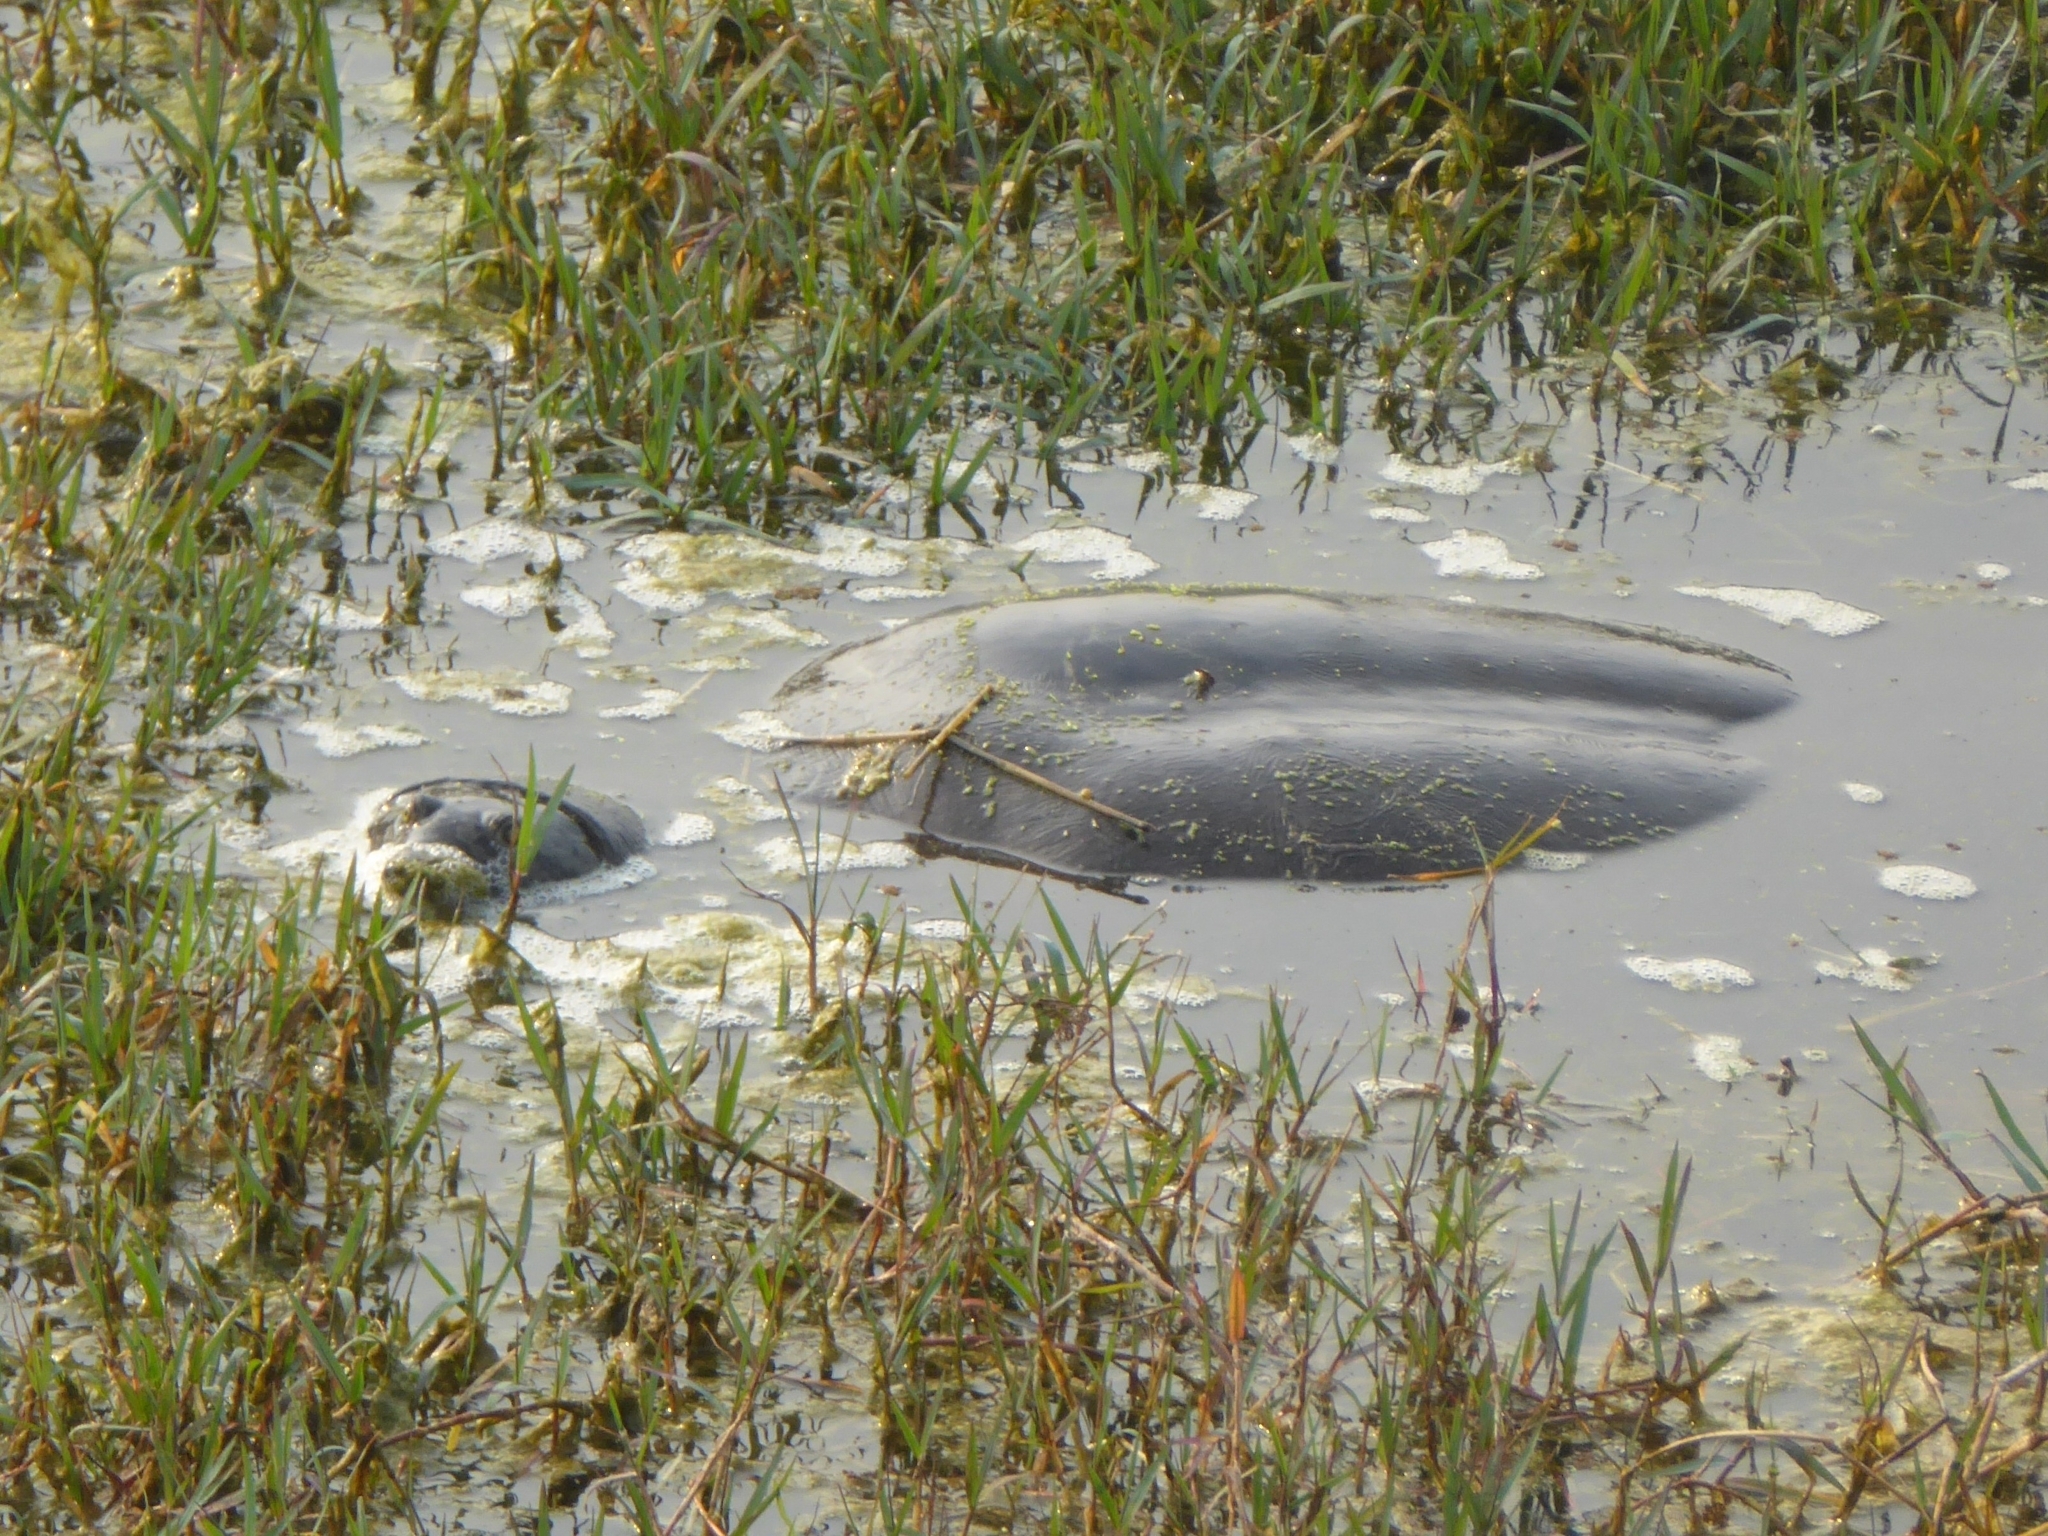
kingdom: Animalia
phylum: Chordata
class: Testudines
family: Trionychidae
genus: Nilssonia
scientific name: Nilssonia gangetica
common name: Indian softshell turtle
